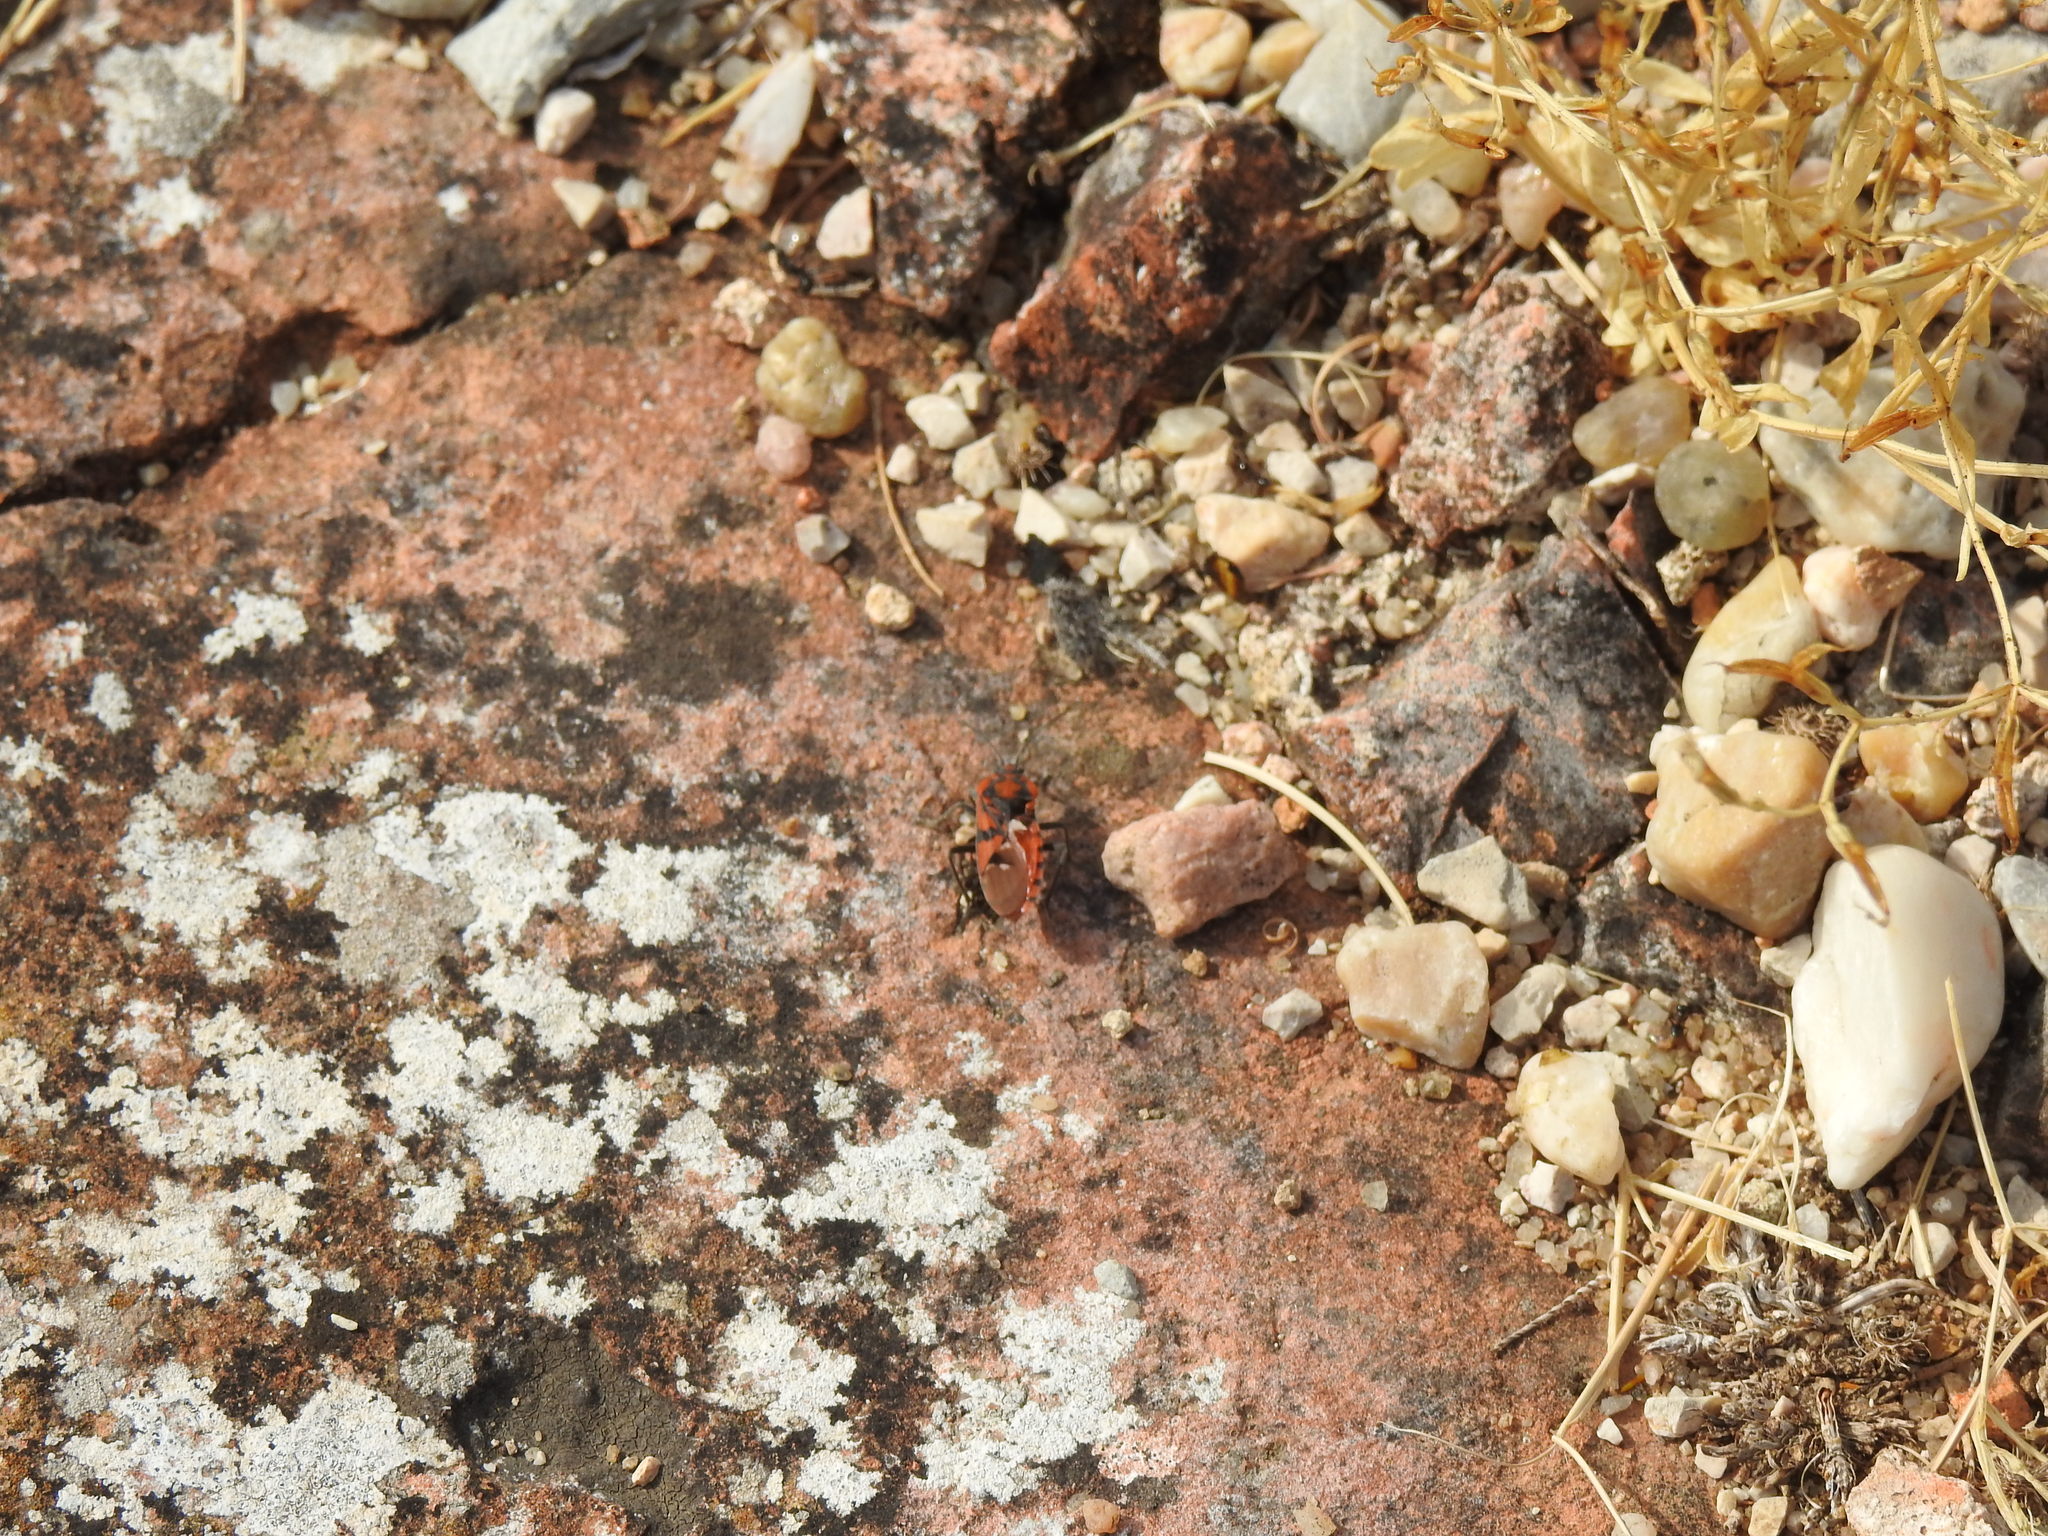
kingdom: Animalia
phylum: Arthropoda
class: Insecta
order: Hemiptera
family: Lygaeidae
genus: Spilostethus
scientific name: Spilostethus pandurus
